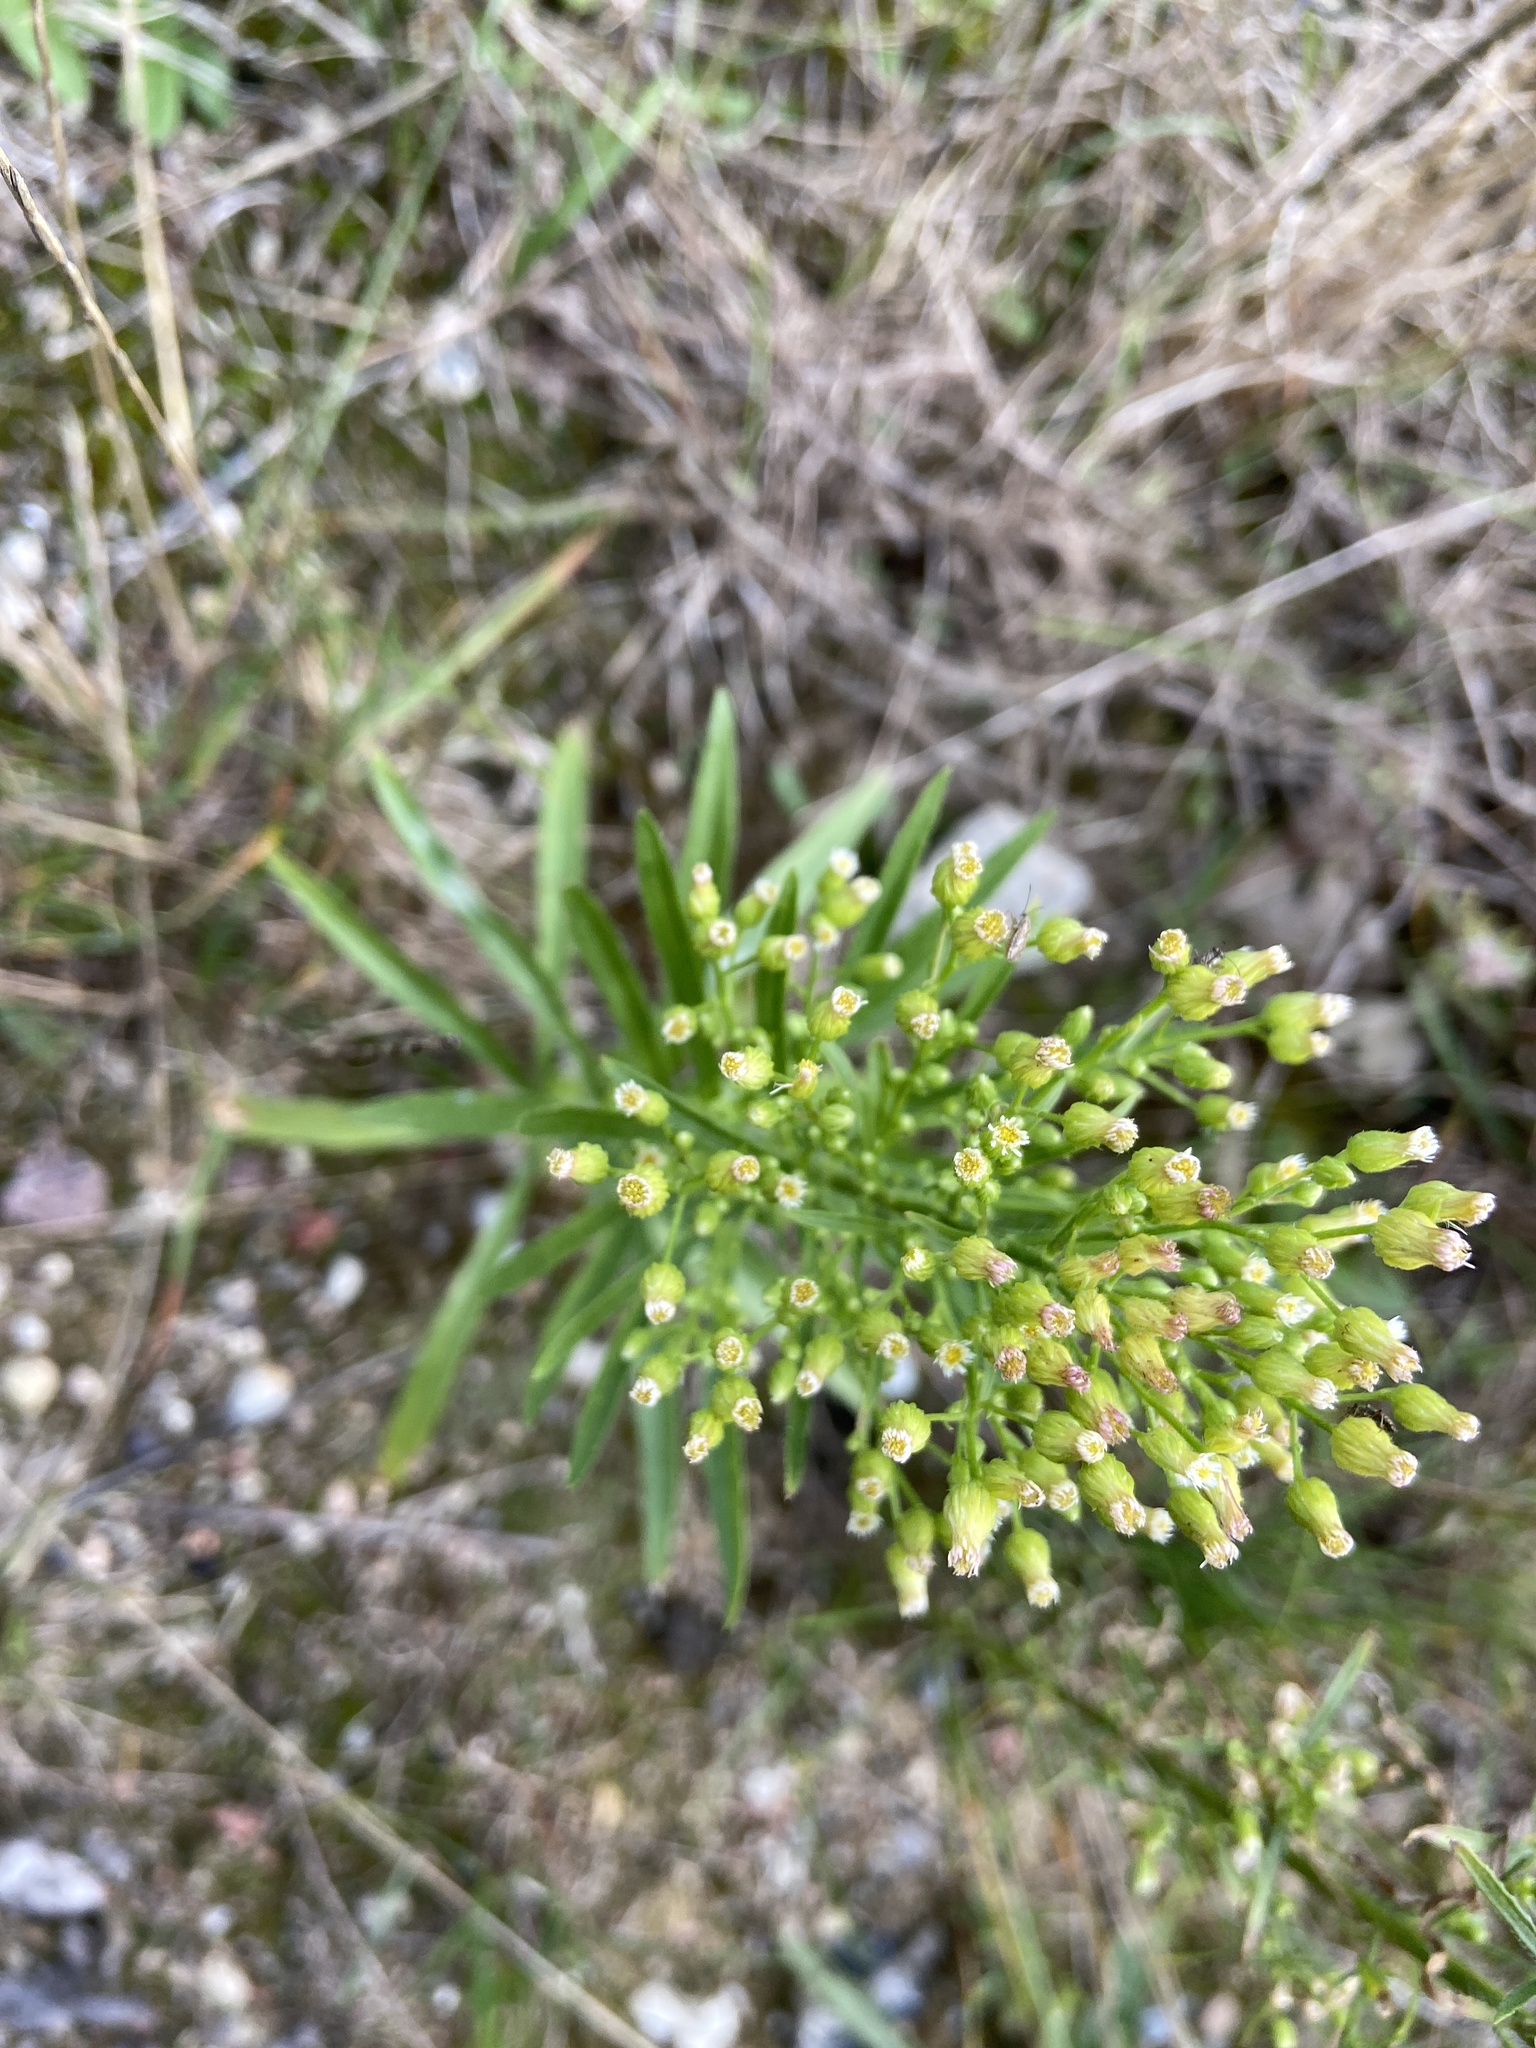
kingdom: Plantae
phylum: Tracheophyta
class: Magnoliopsida
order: Asterales
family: Asteraceae
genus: Erigeron
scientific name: Erigeron canadensis
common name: Canadian fleabane
